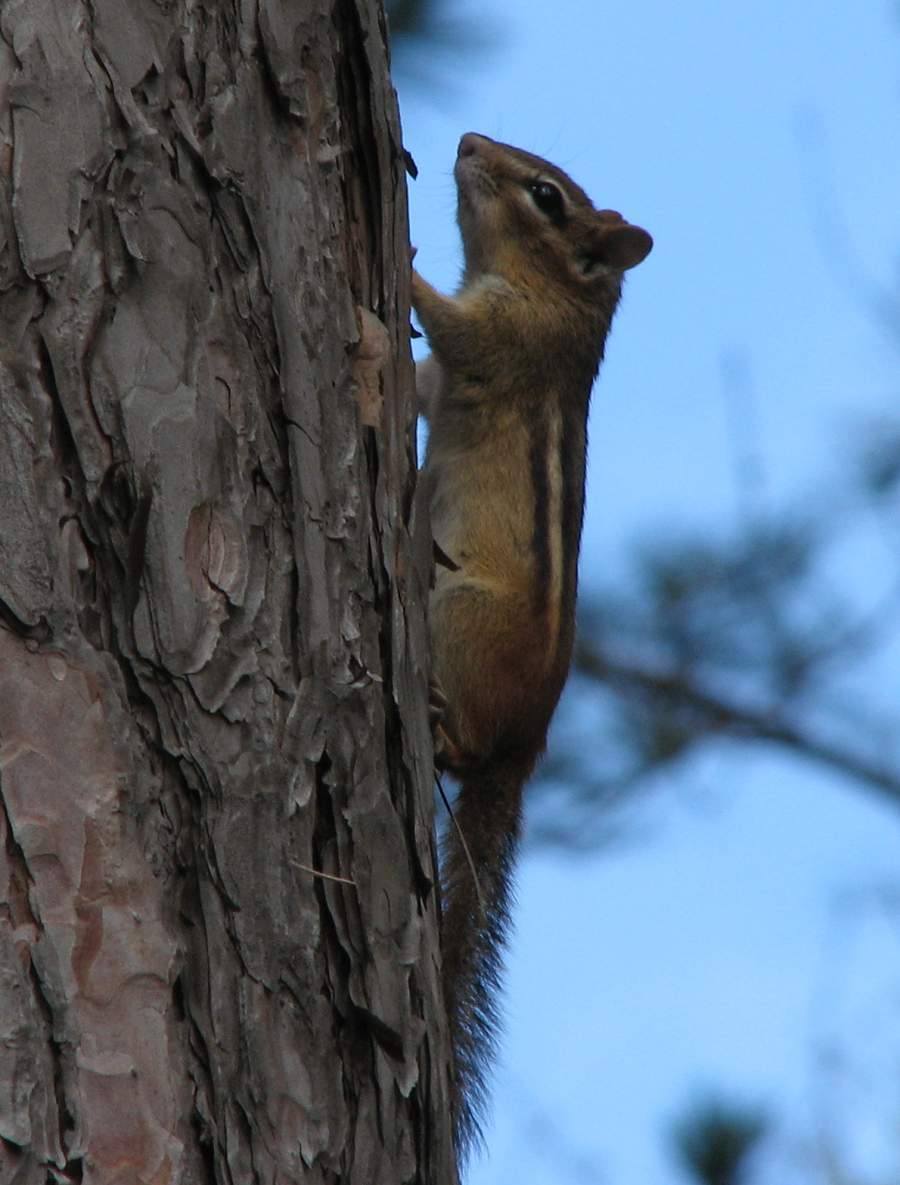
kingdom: Animalia
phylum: Chordata
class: Mammalia
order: Rodentia
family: Sciuridae
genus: Tamias
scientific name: Tamias striatus
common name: Eastern chipmunk
